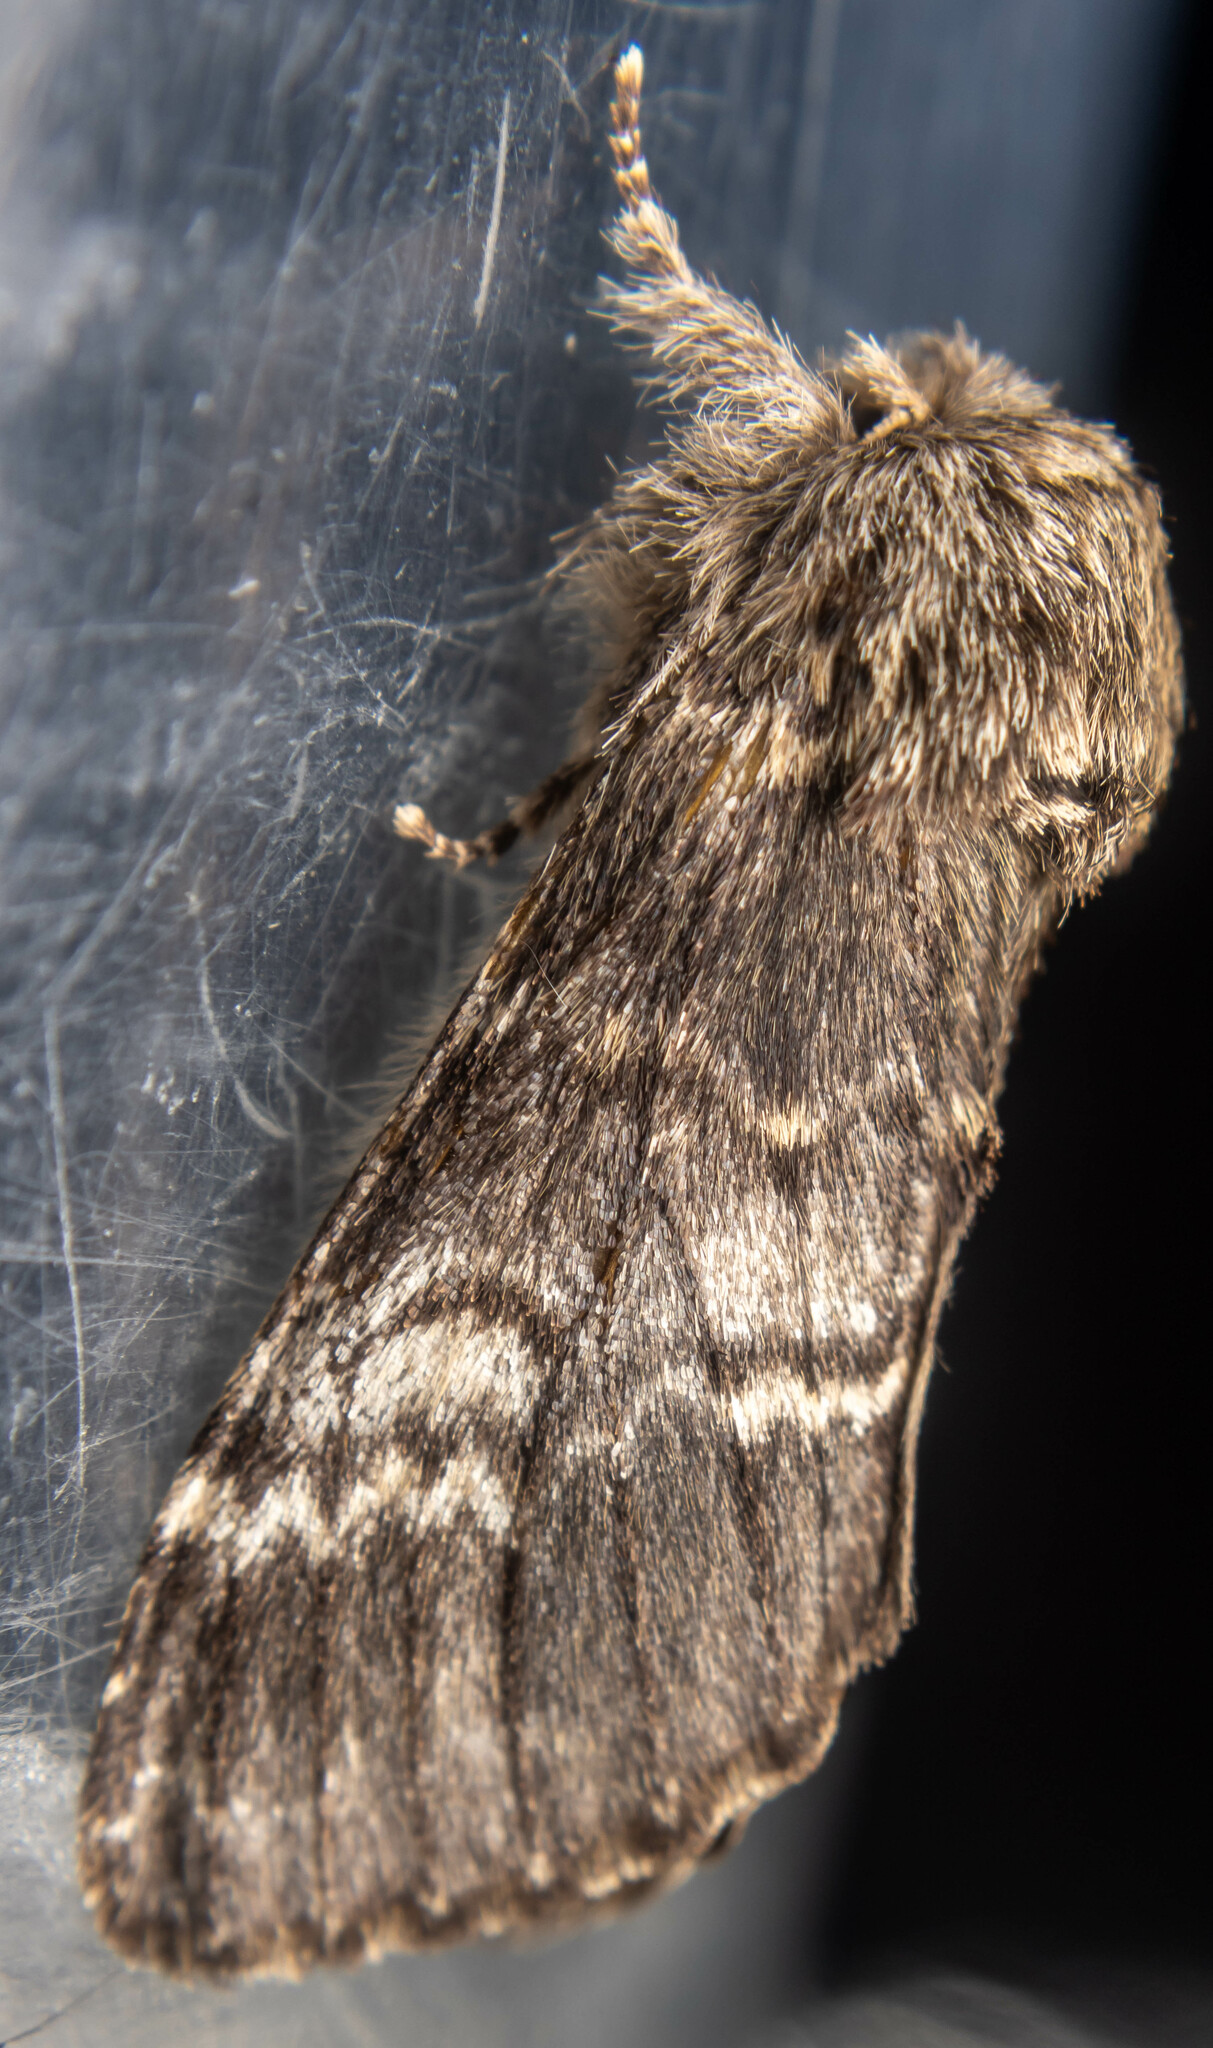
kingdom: Animalia
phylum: Arthropoda
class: Insecta
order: Lepidoptera
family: Notodontidae
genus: Drymonia
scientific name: Drymonia ruficornis
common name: Lunar marbled brown
